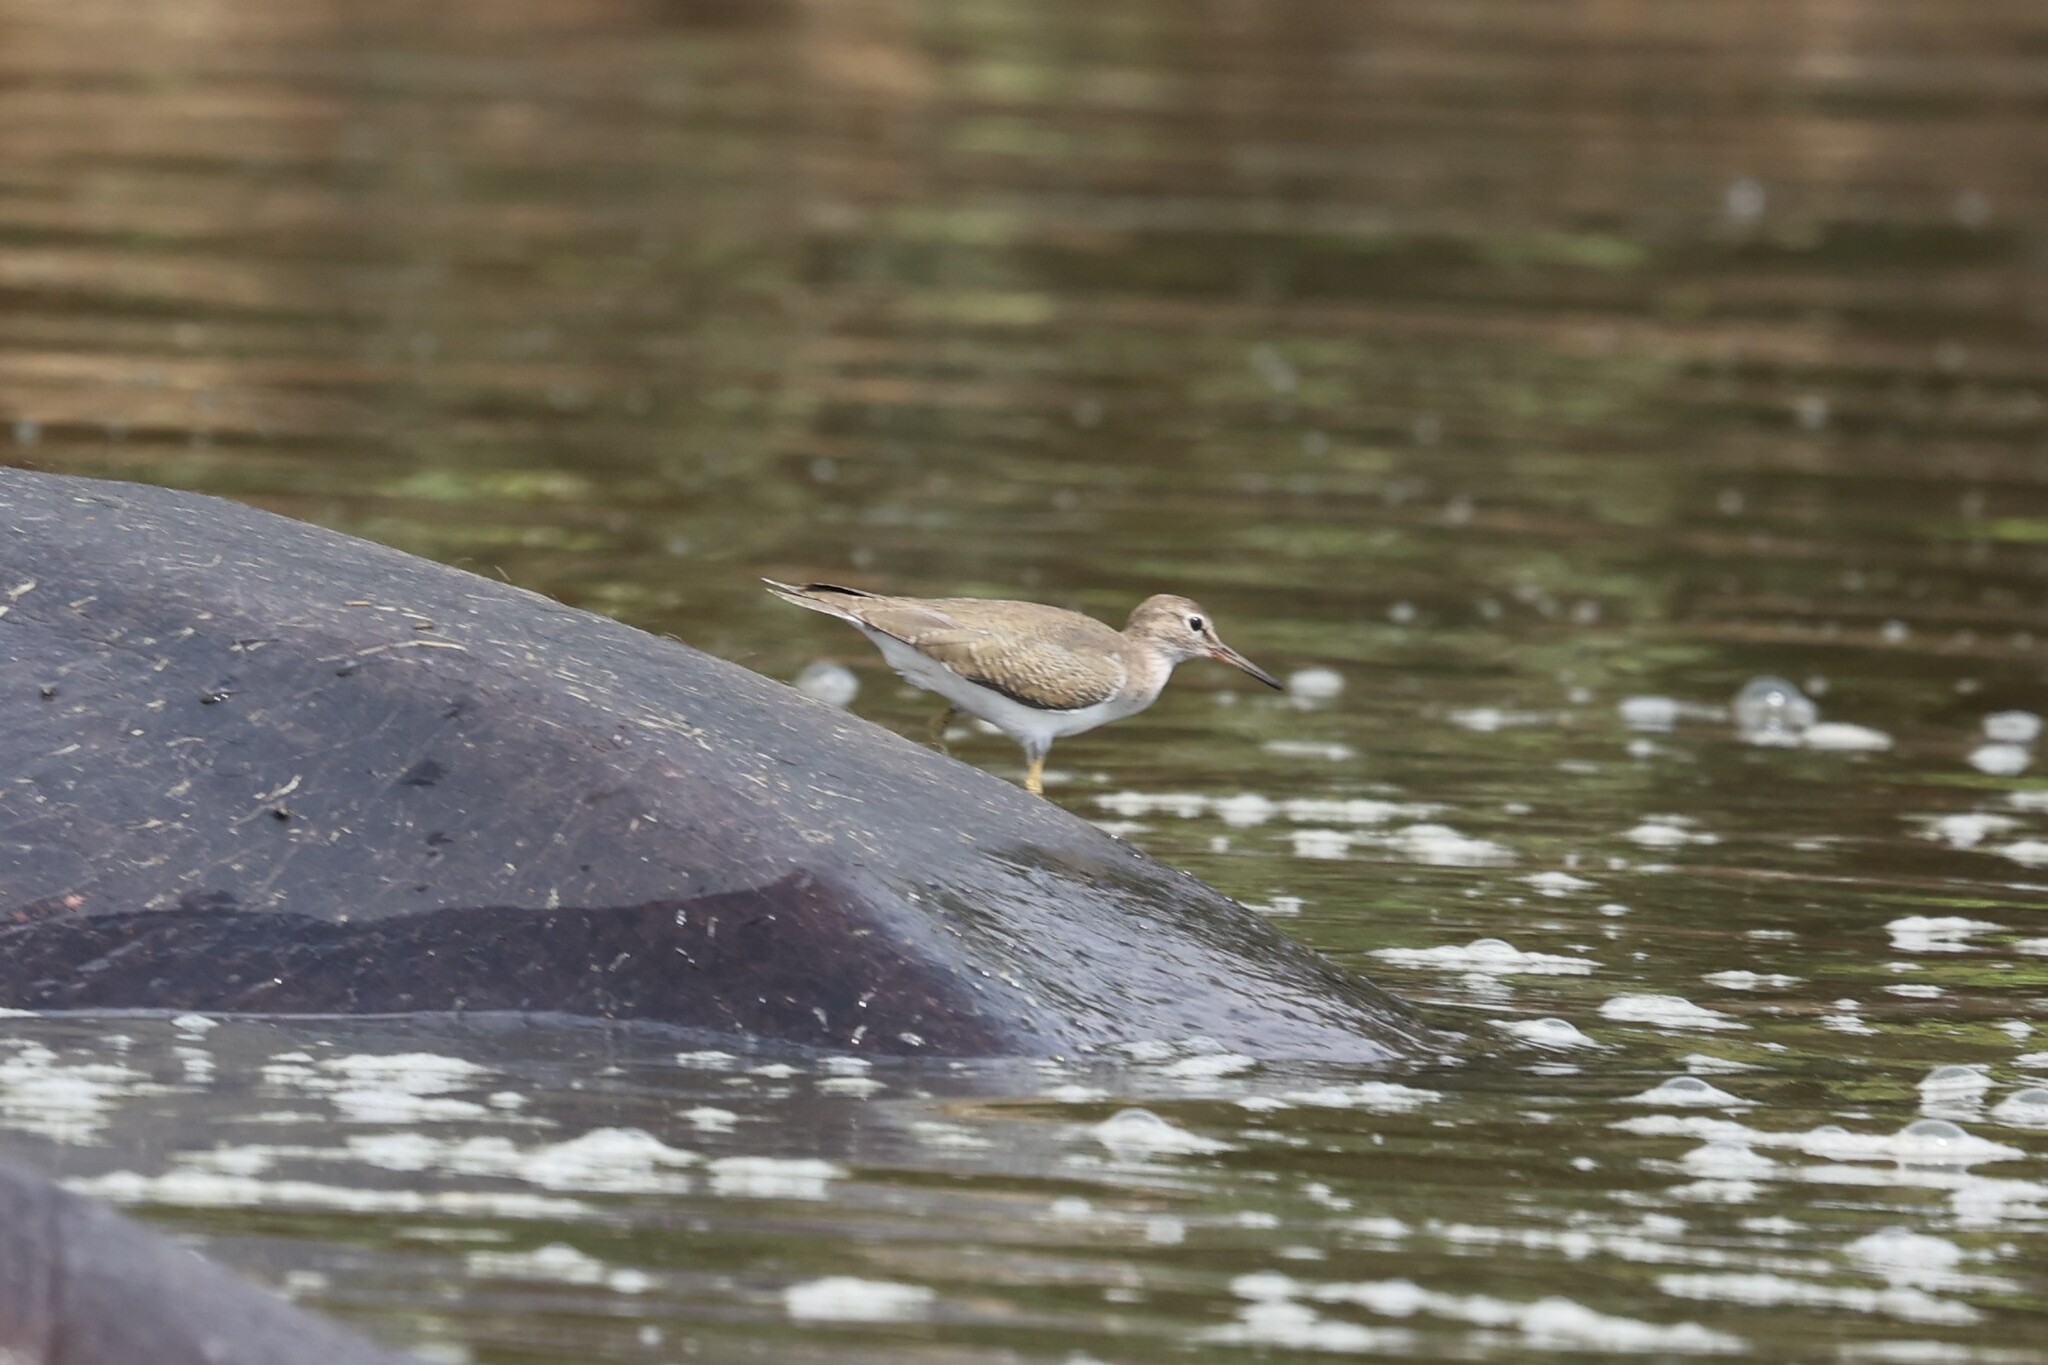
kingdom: Animalia
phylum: Chordata
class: Aves
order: Charadriiformes
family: Scolopacidae
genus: Actitis
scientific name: Actitis hypoleucos
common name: Common sandpiper
